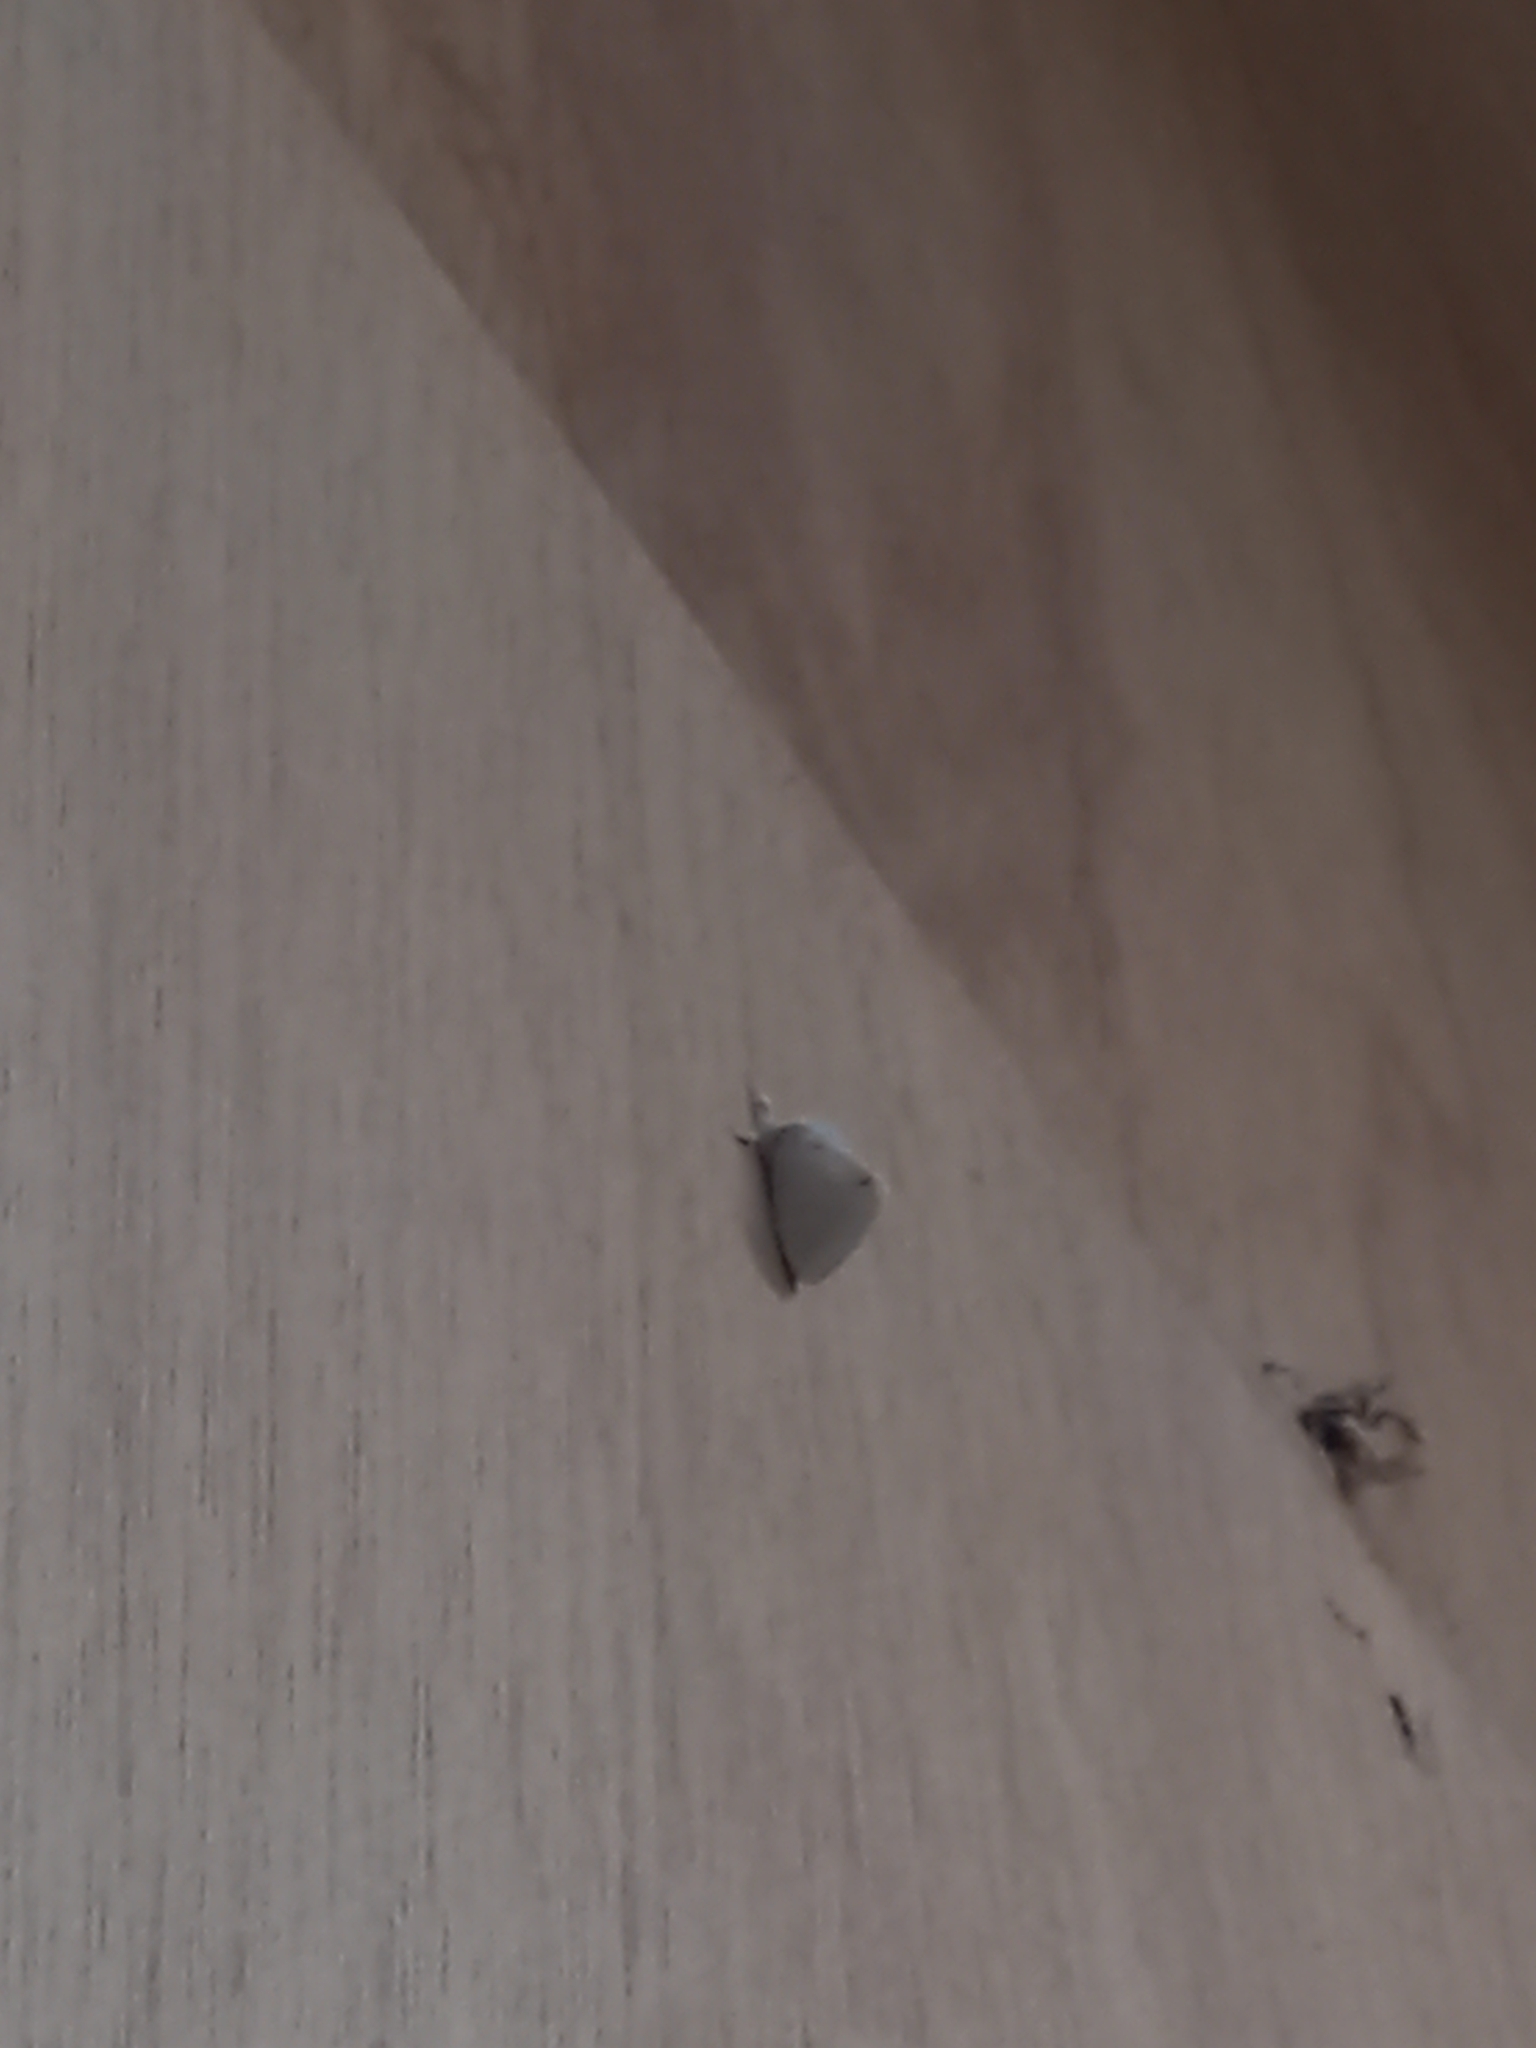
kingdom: Animalia
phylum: Arthropoda
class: Insecta
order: Lepidoptera
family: Erebidae
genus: Sphrageidus
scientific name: Sphrageidus similis
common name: Yellow-tail
